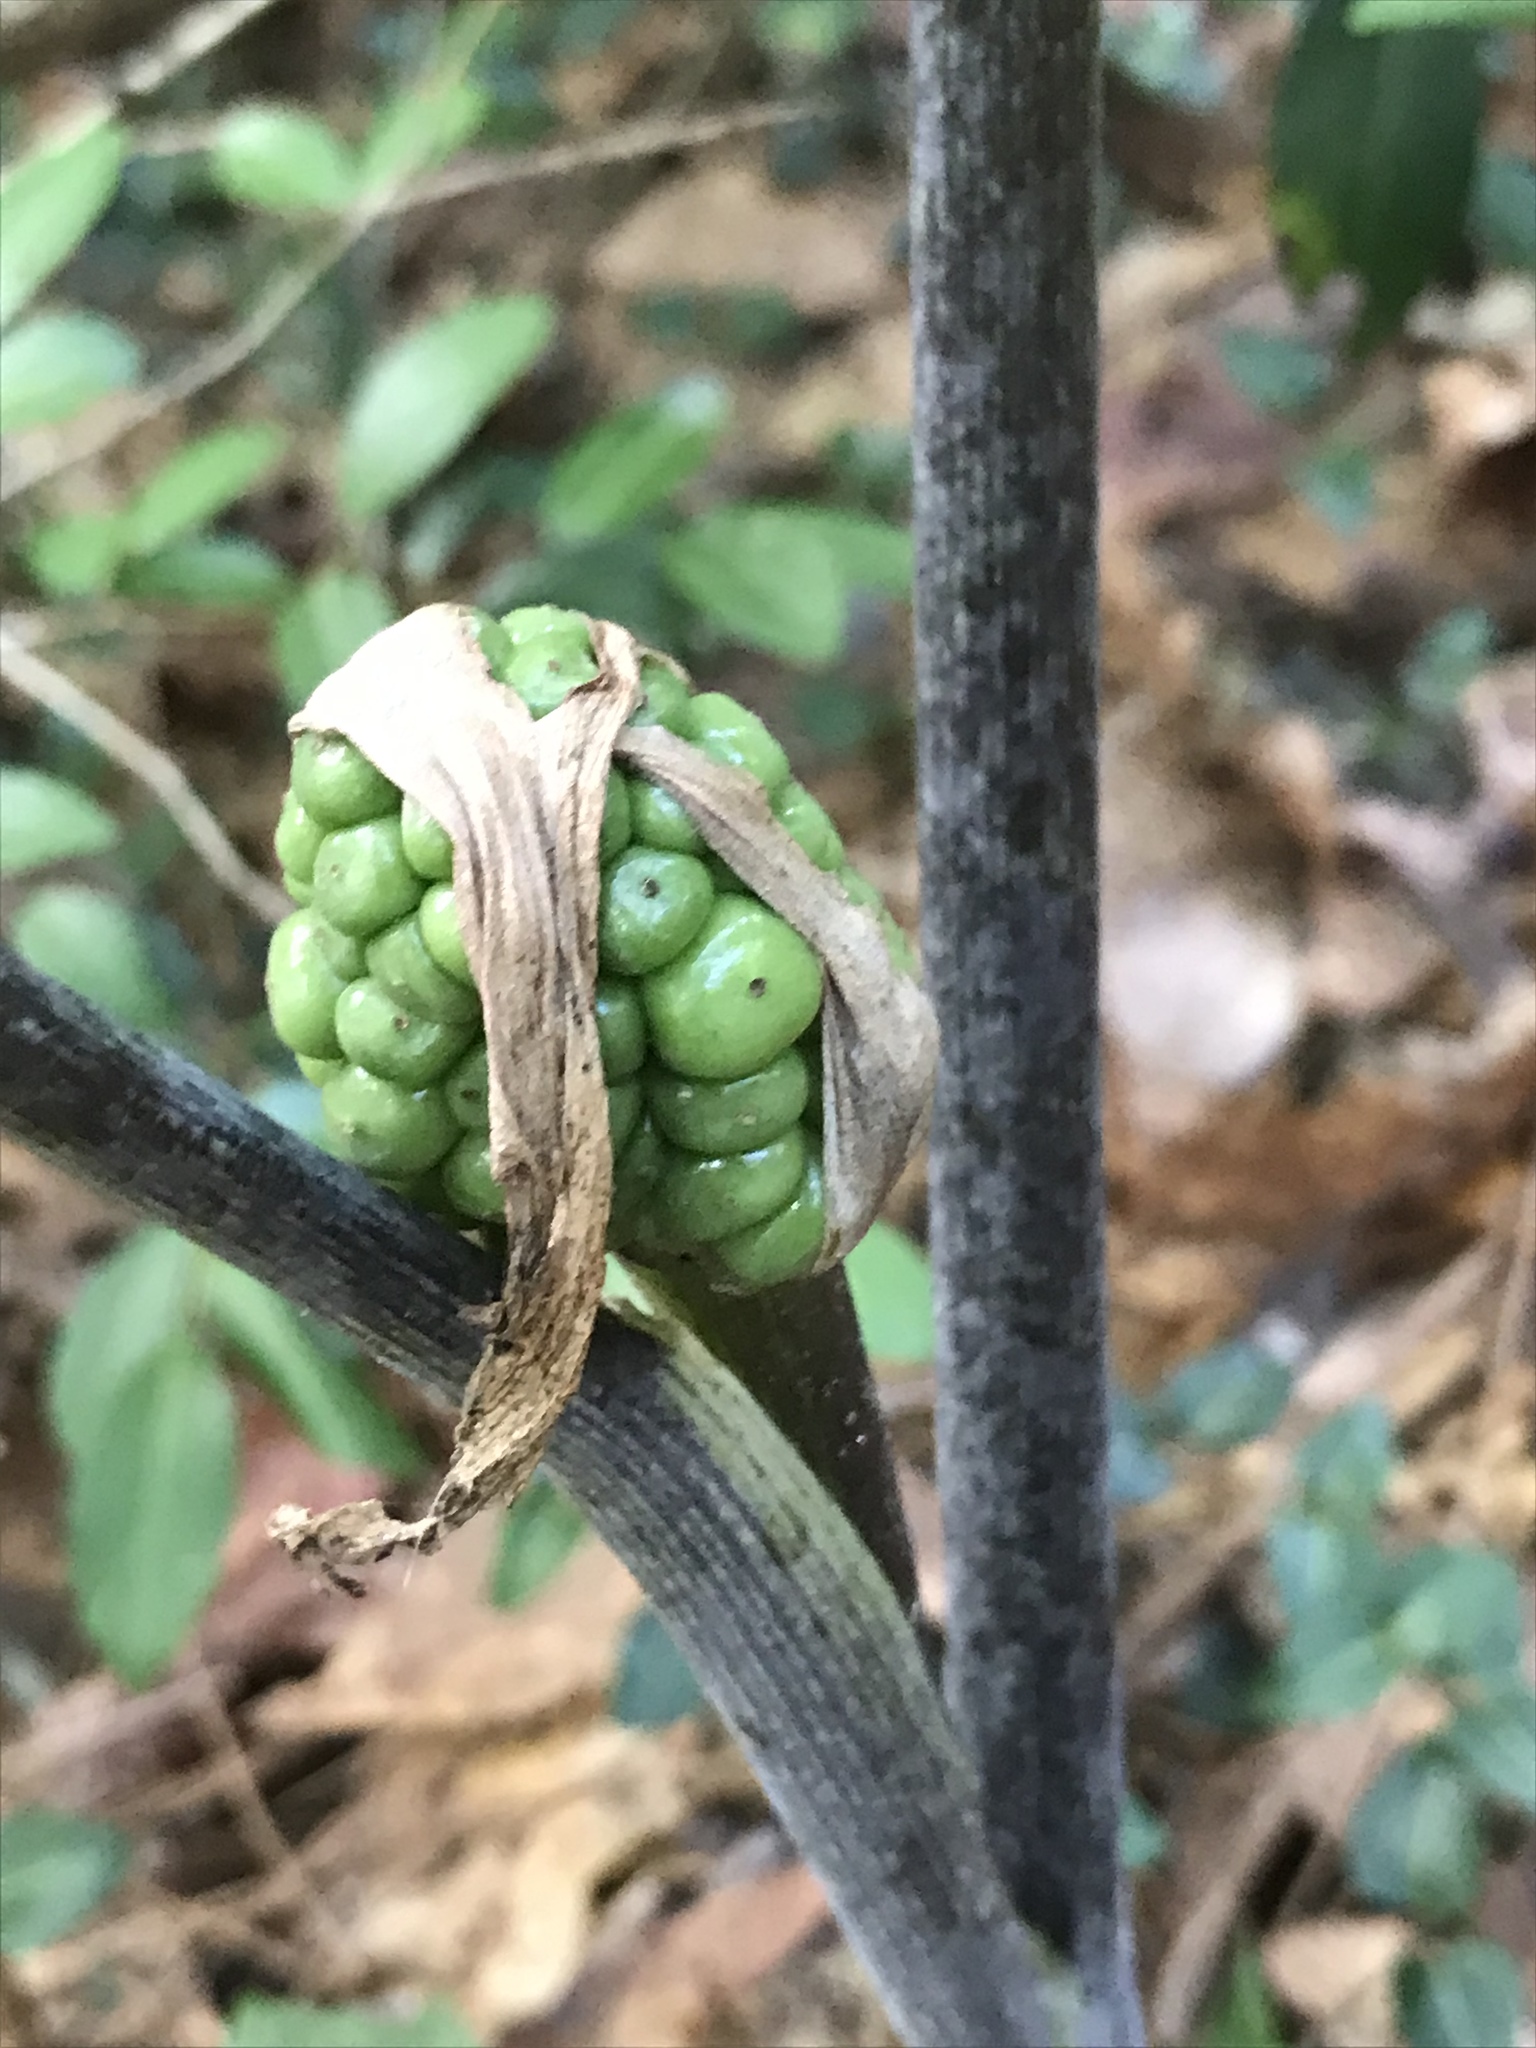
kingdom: Plantae
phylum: Tracheophyta
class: Liliopsida
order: Alismatales
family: Araceae
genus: Arisaema
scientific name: Arisaema quinatum
